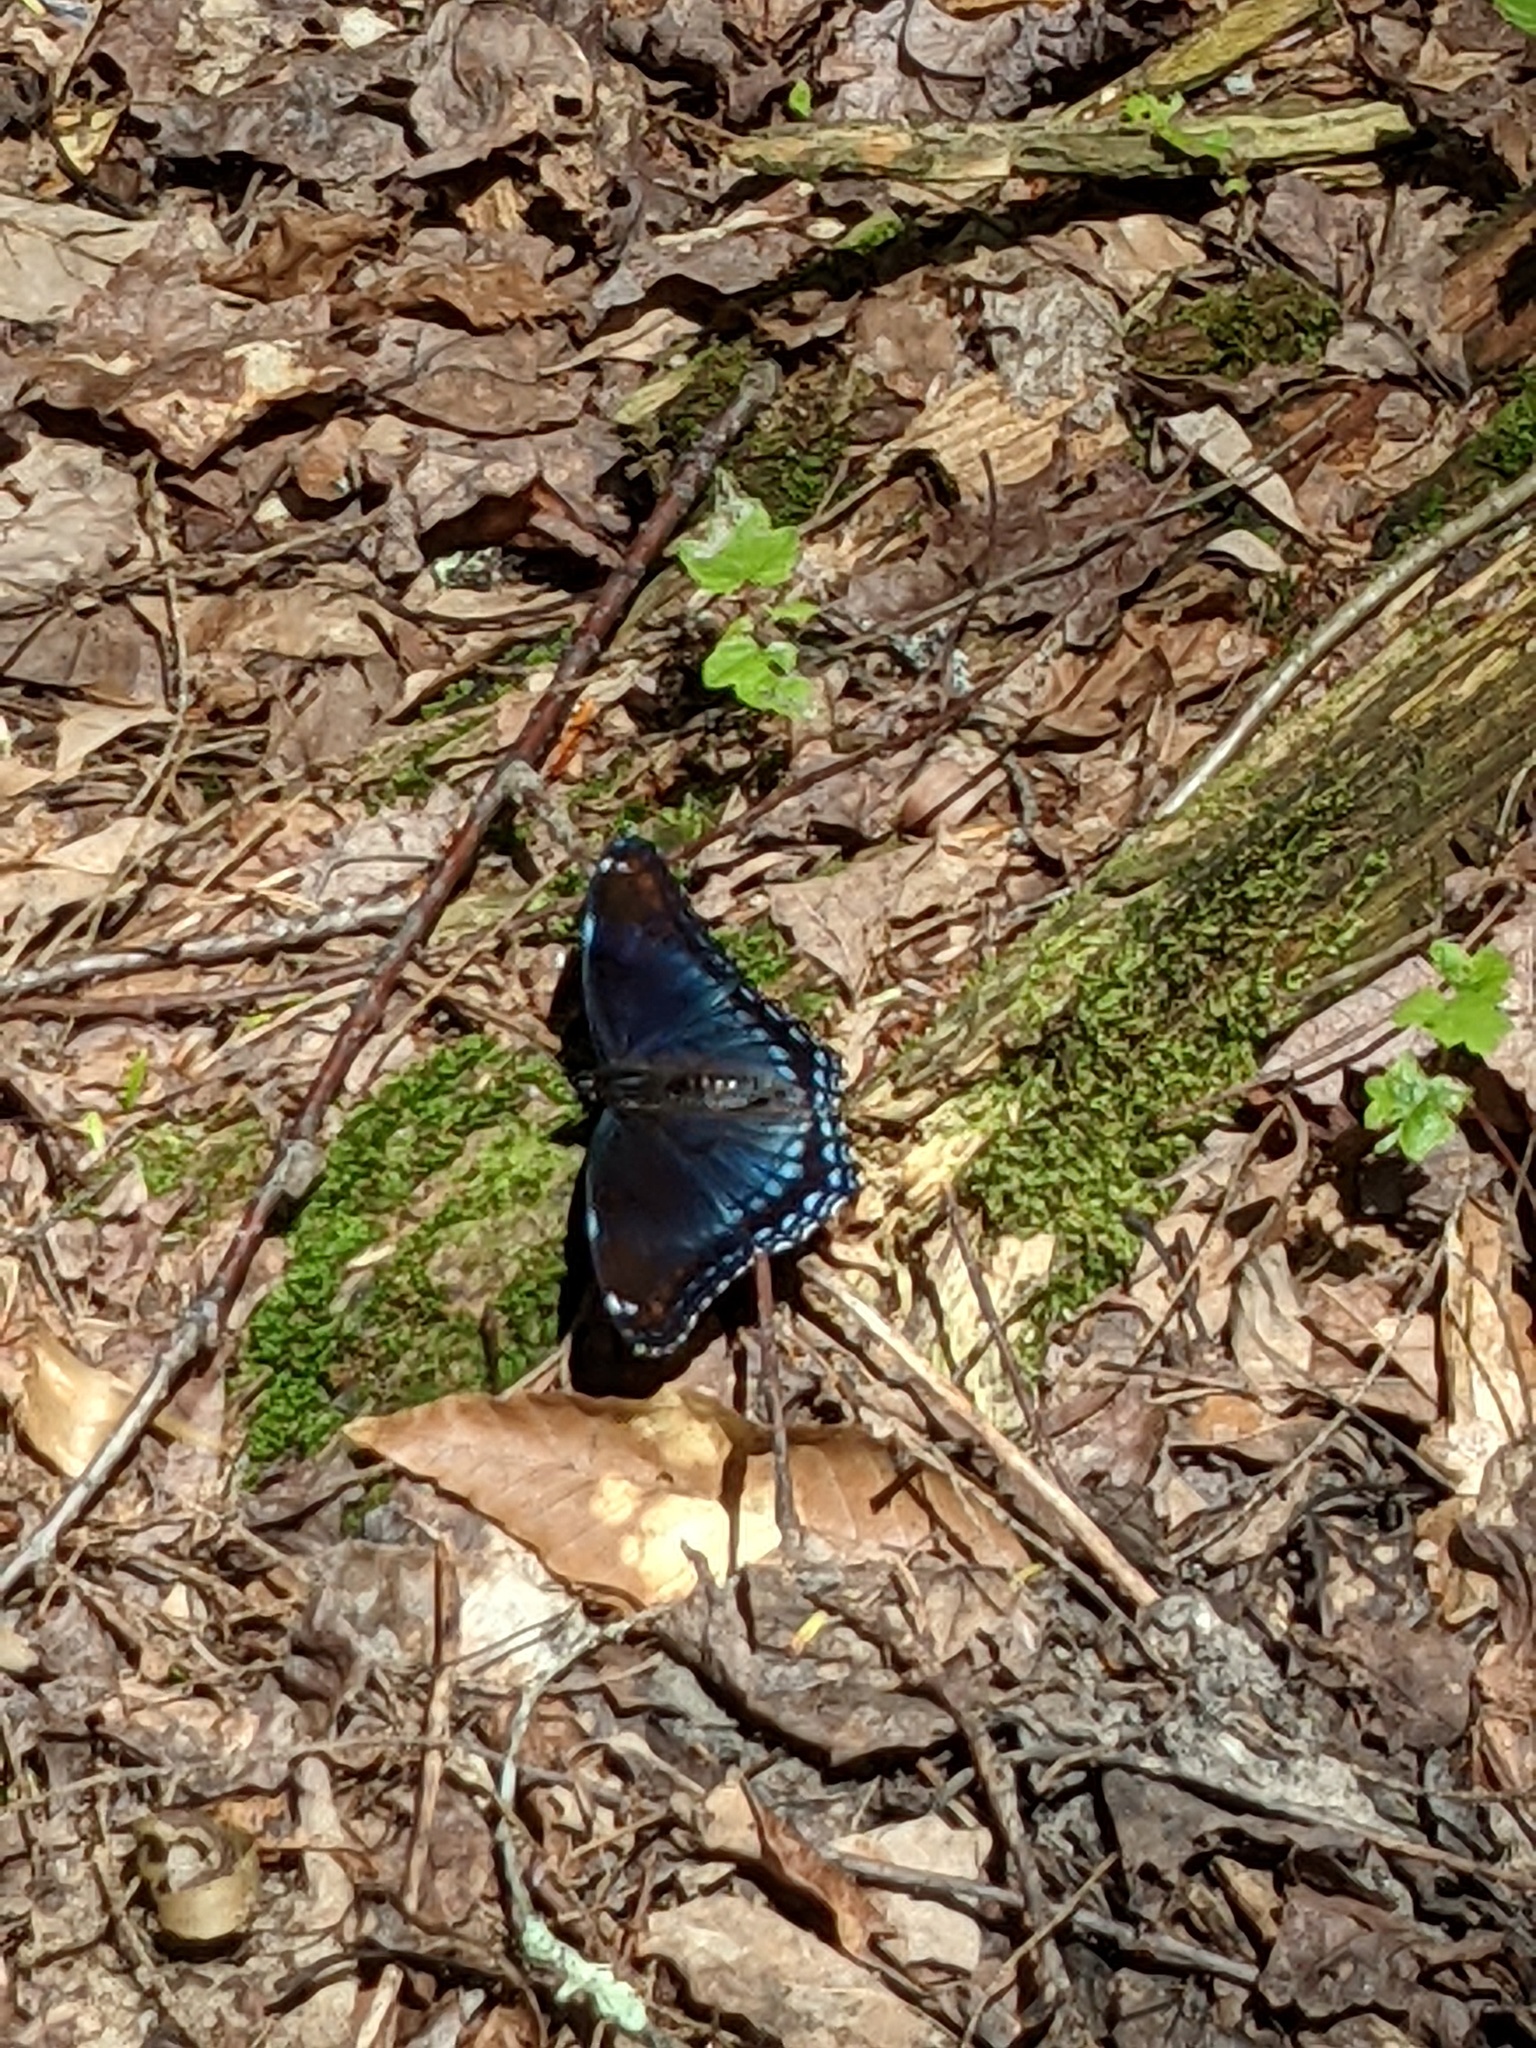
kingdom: Animalia
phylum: Arthropoda
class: Insecta
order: Lepidoptera
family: Nymphalidae
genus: Limenitis
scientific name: Limenitis arthemis
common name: Red-spotted admiral
